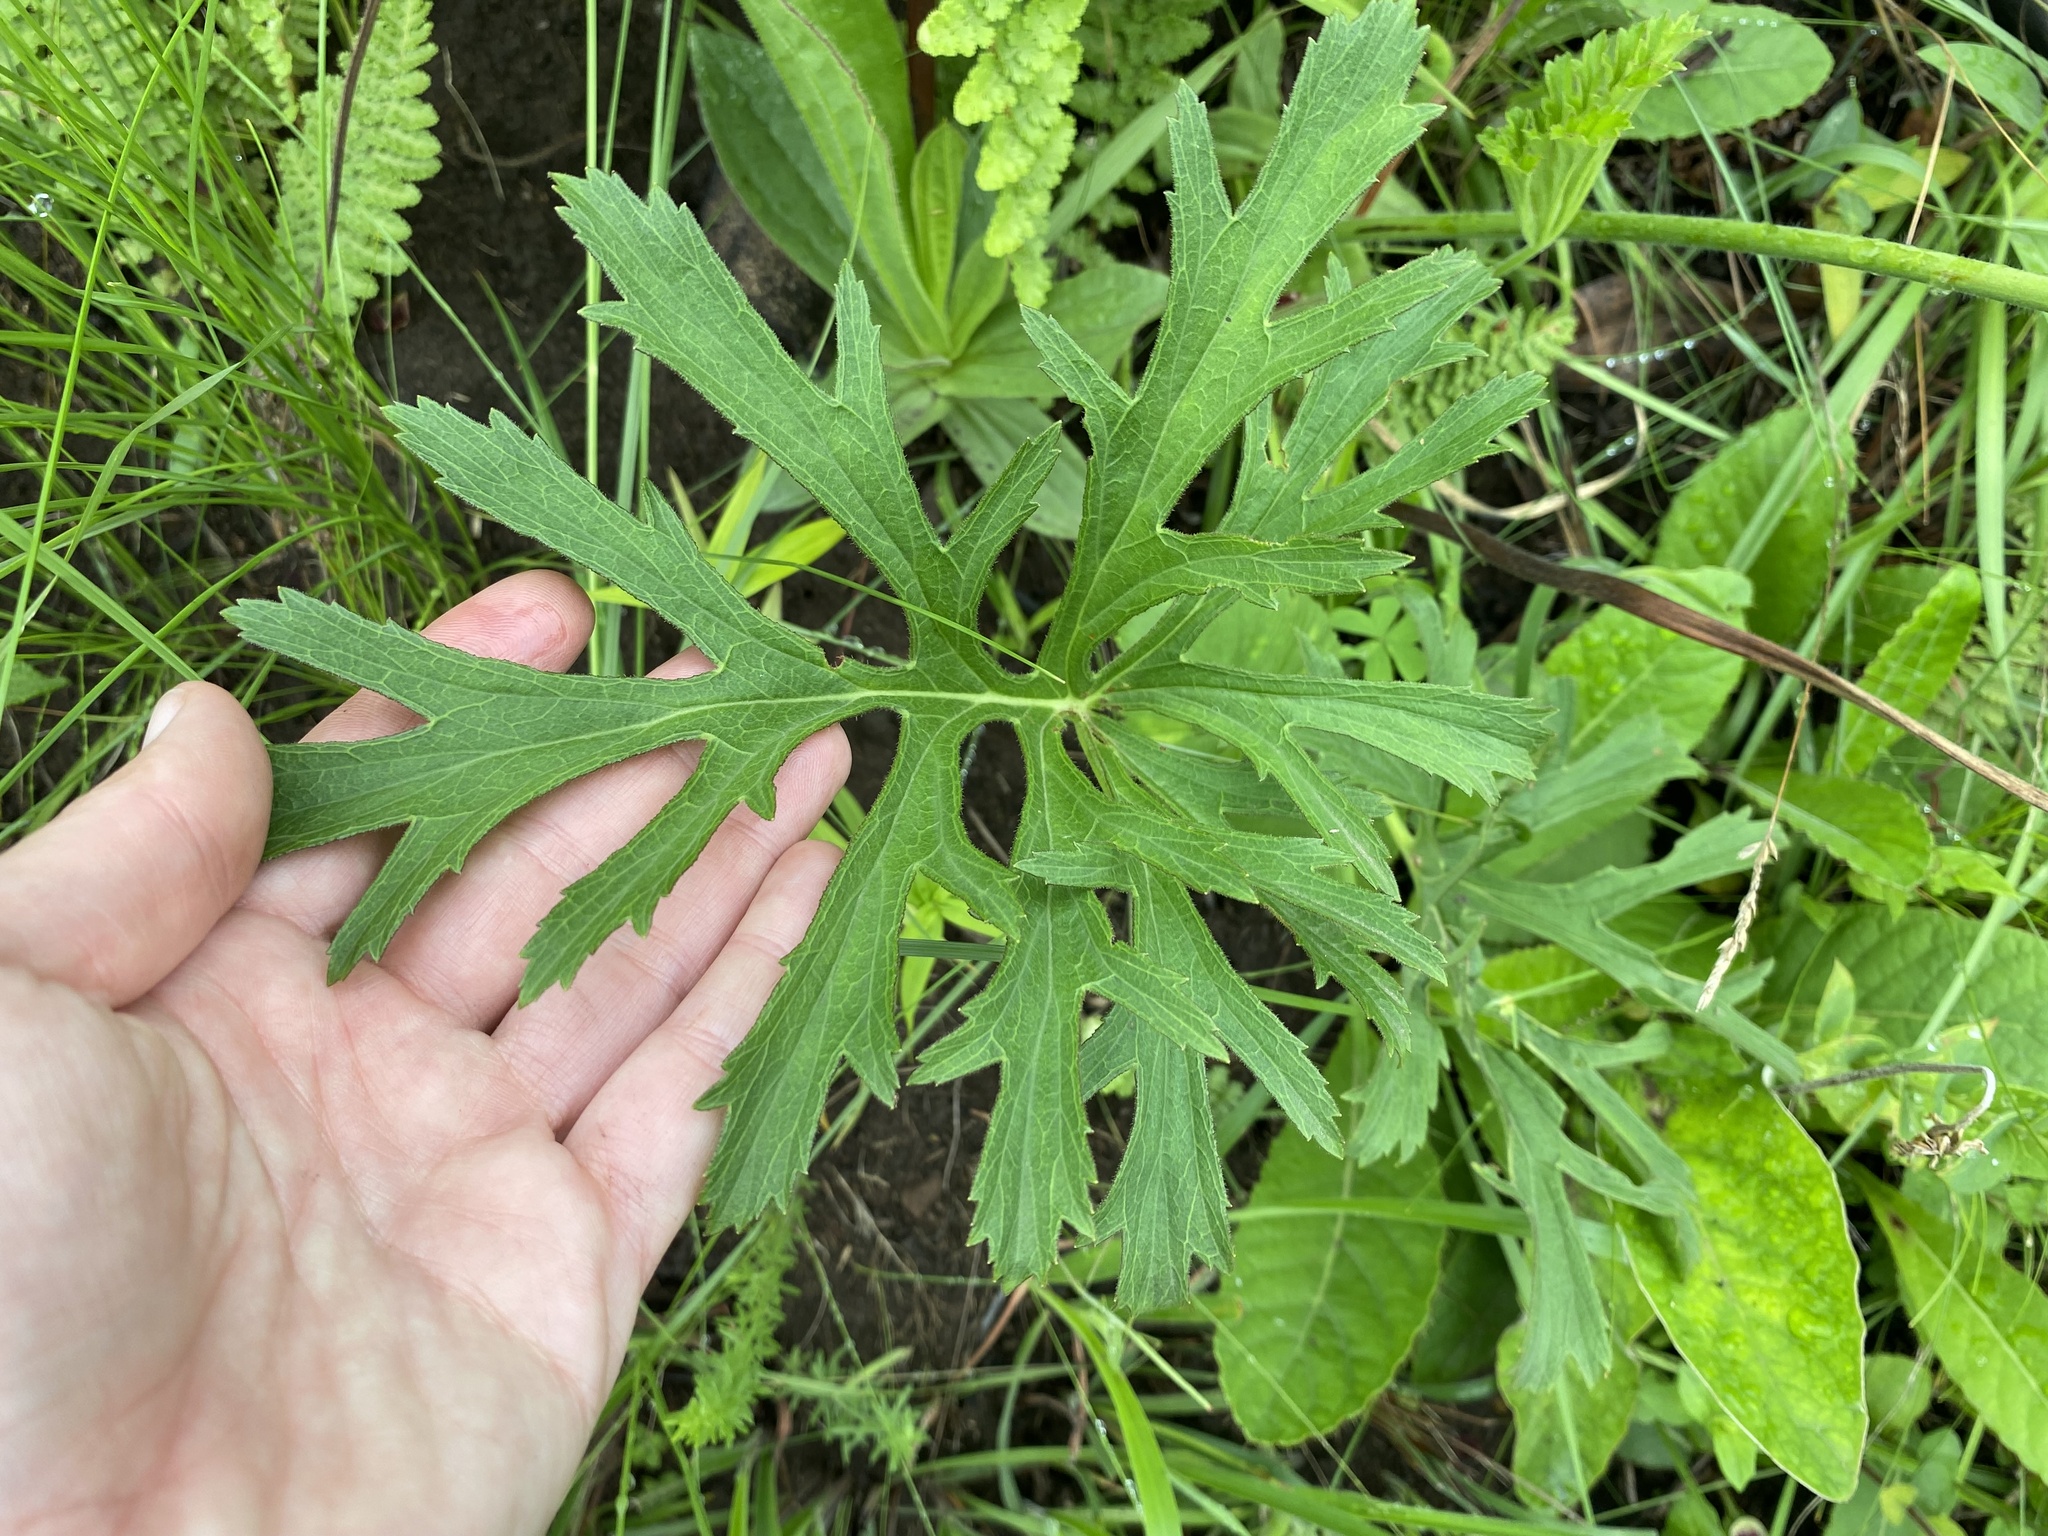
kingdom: Plantae
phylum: Tracheophyta
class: Magnoliopsida
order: Geraniales
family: Geraniaceae
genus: Pelargonium
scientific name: Pelargonium luridum
